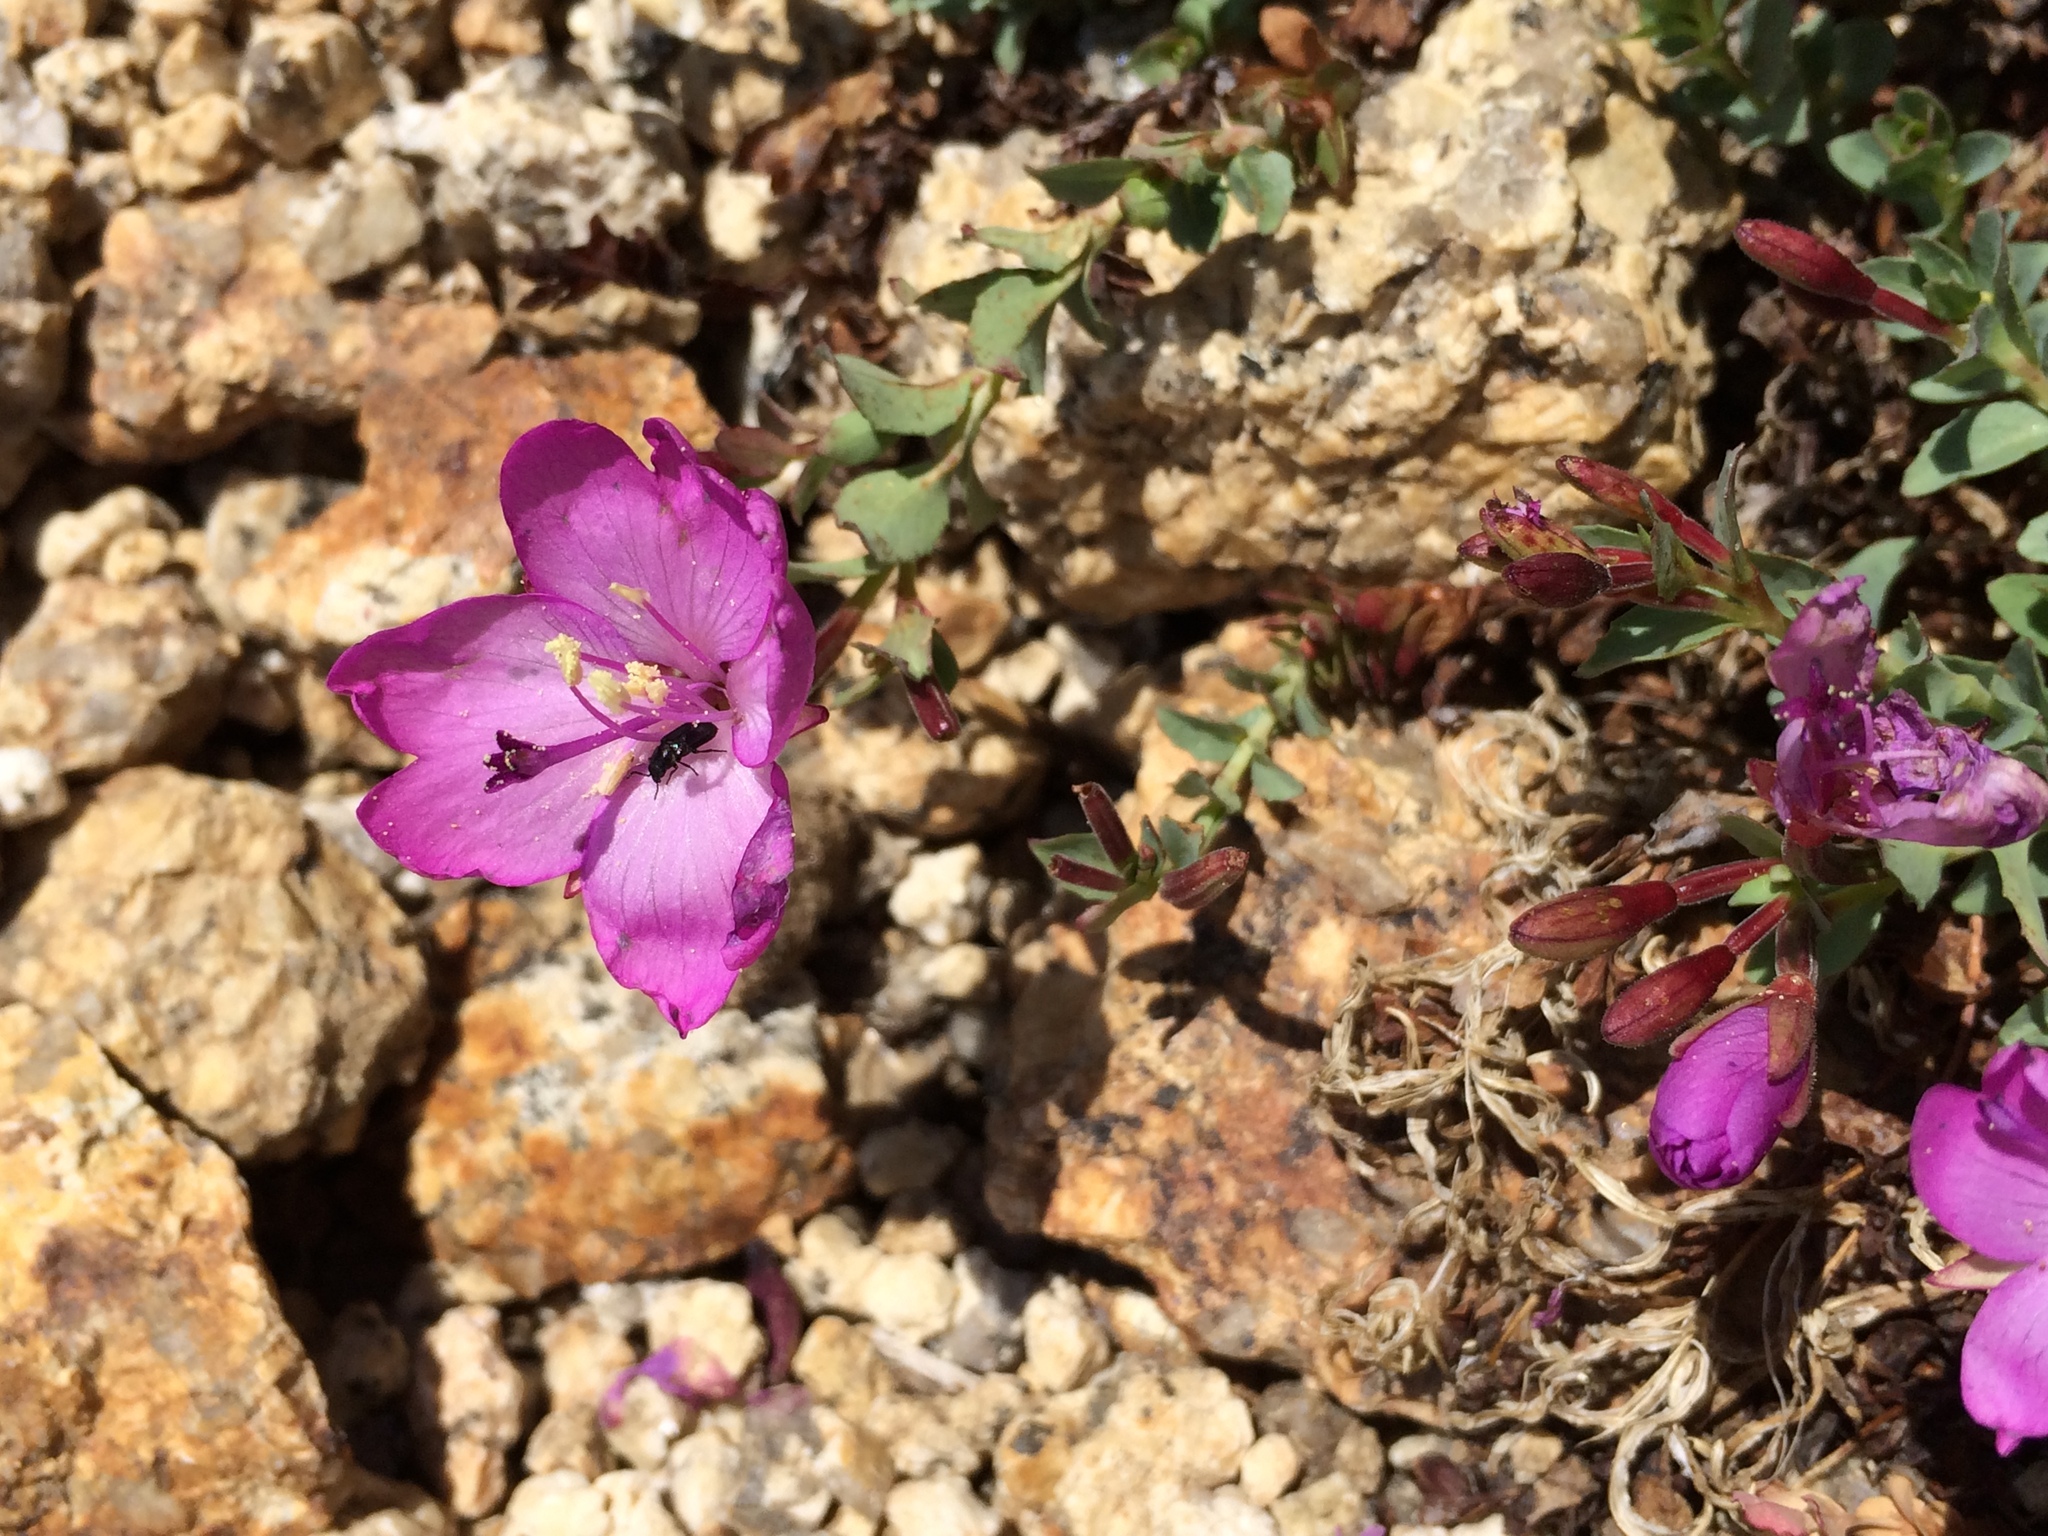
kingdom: Plantae
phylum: Tracheophyta
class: Magnoliopsida
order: Myrtales
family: Onagraceae
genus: Epilobium
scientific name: Epilobium obcordatum
